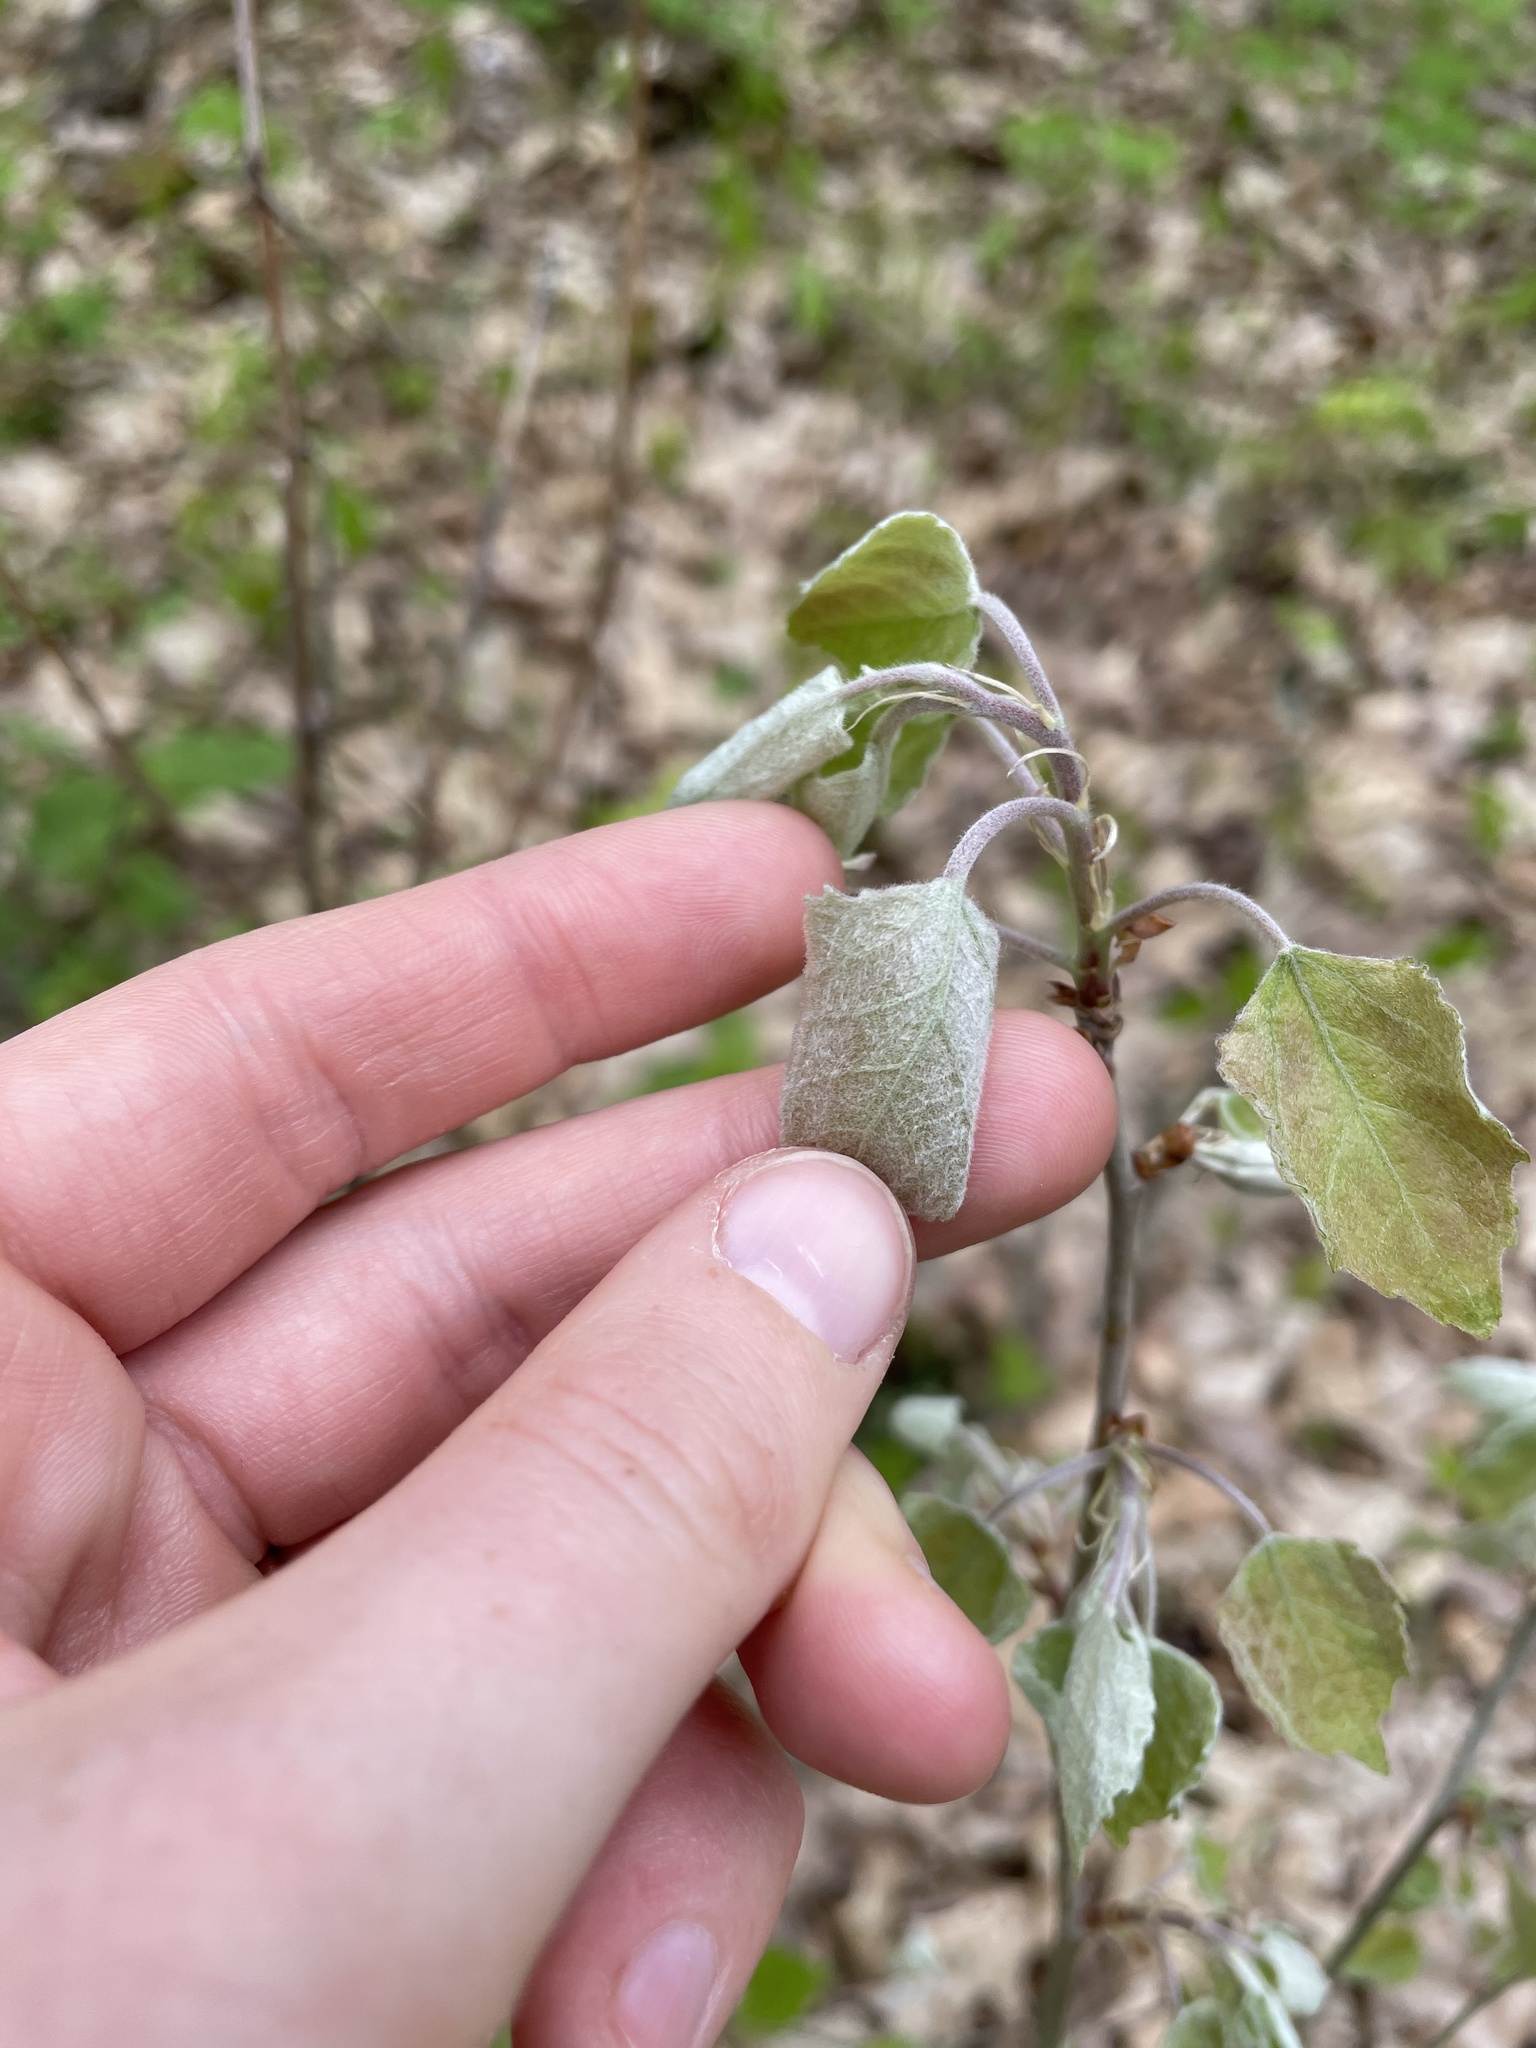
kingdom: Plantae
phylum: Tracheophyta
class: Magnoliopsida
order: Malpighiales
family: Salicaceae
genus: Populus
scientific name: Populus alba
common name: White poplar
